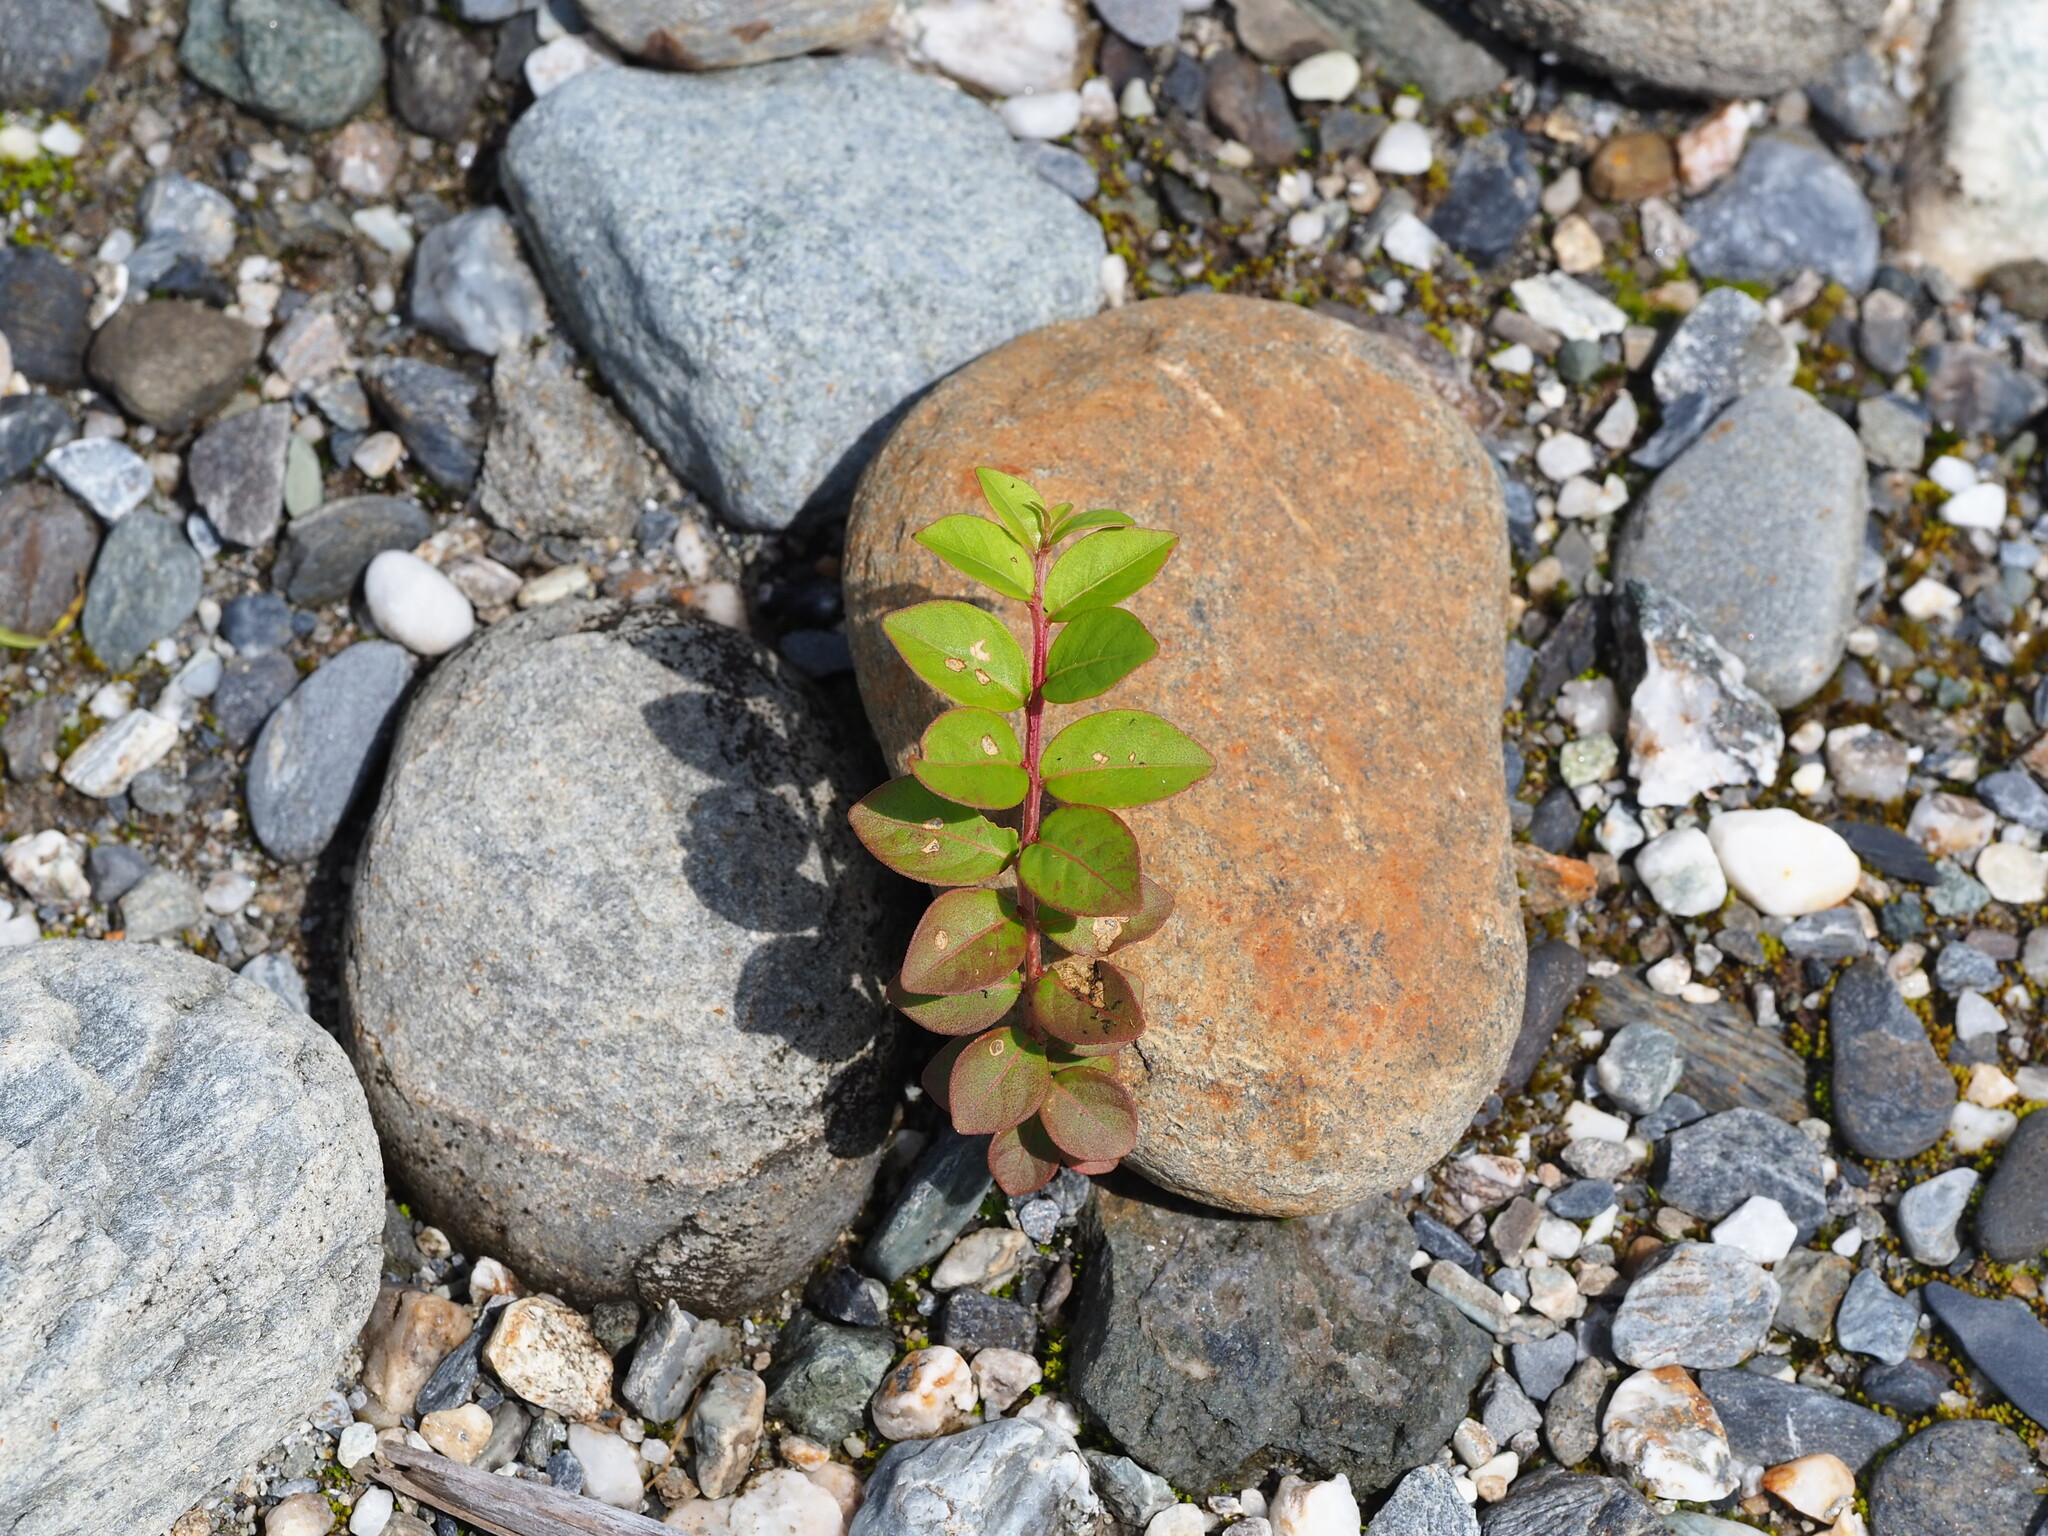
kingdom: Plantae
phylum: Tracheophyta
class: Magnoliopsida
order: Myrtales
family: Lythraceae
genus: Lagerstroemia
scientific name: Lagerstroemia subcostata
